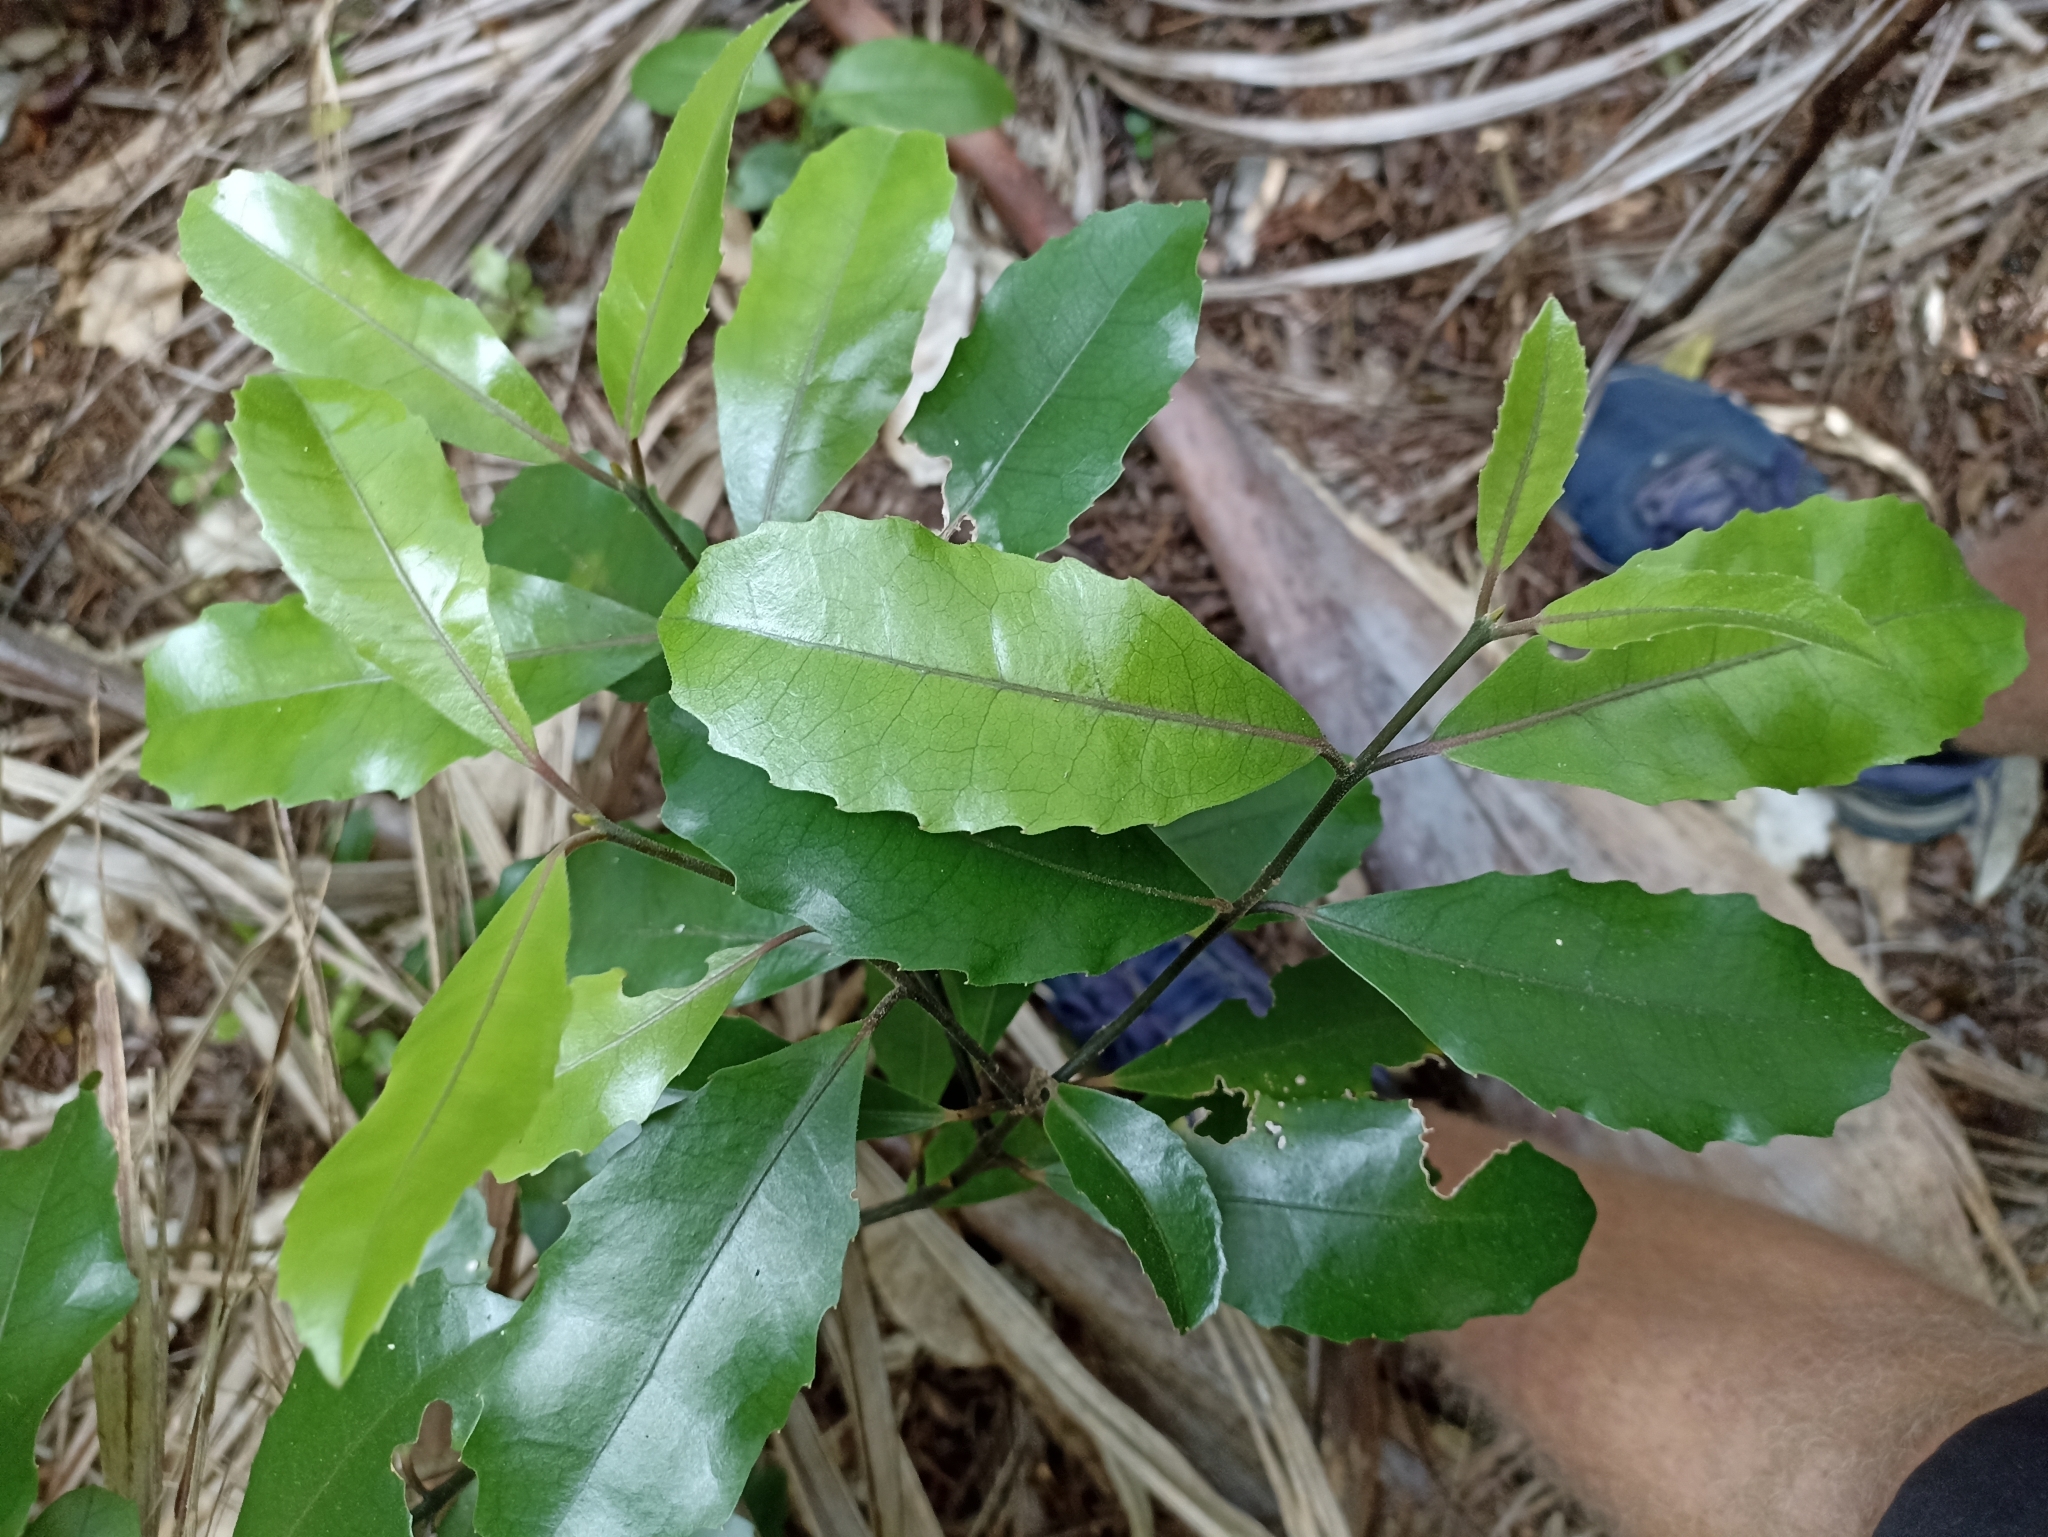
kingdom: Plantae
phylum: Tracheophyta
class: Magnoliopsida
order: Laurales
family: Monimiaceae
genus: Hedycarya
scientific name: Hedycarya arborea
